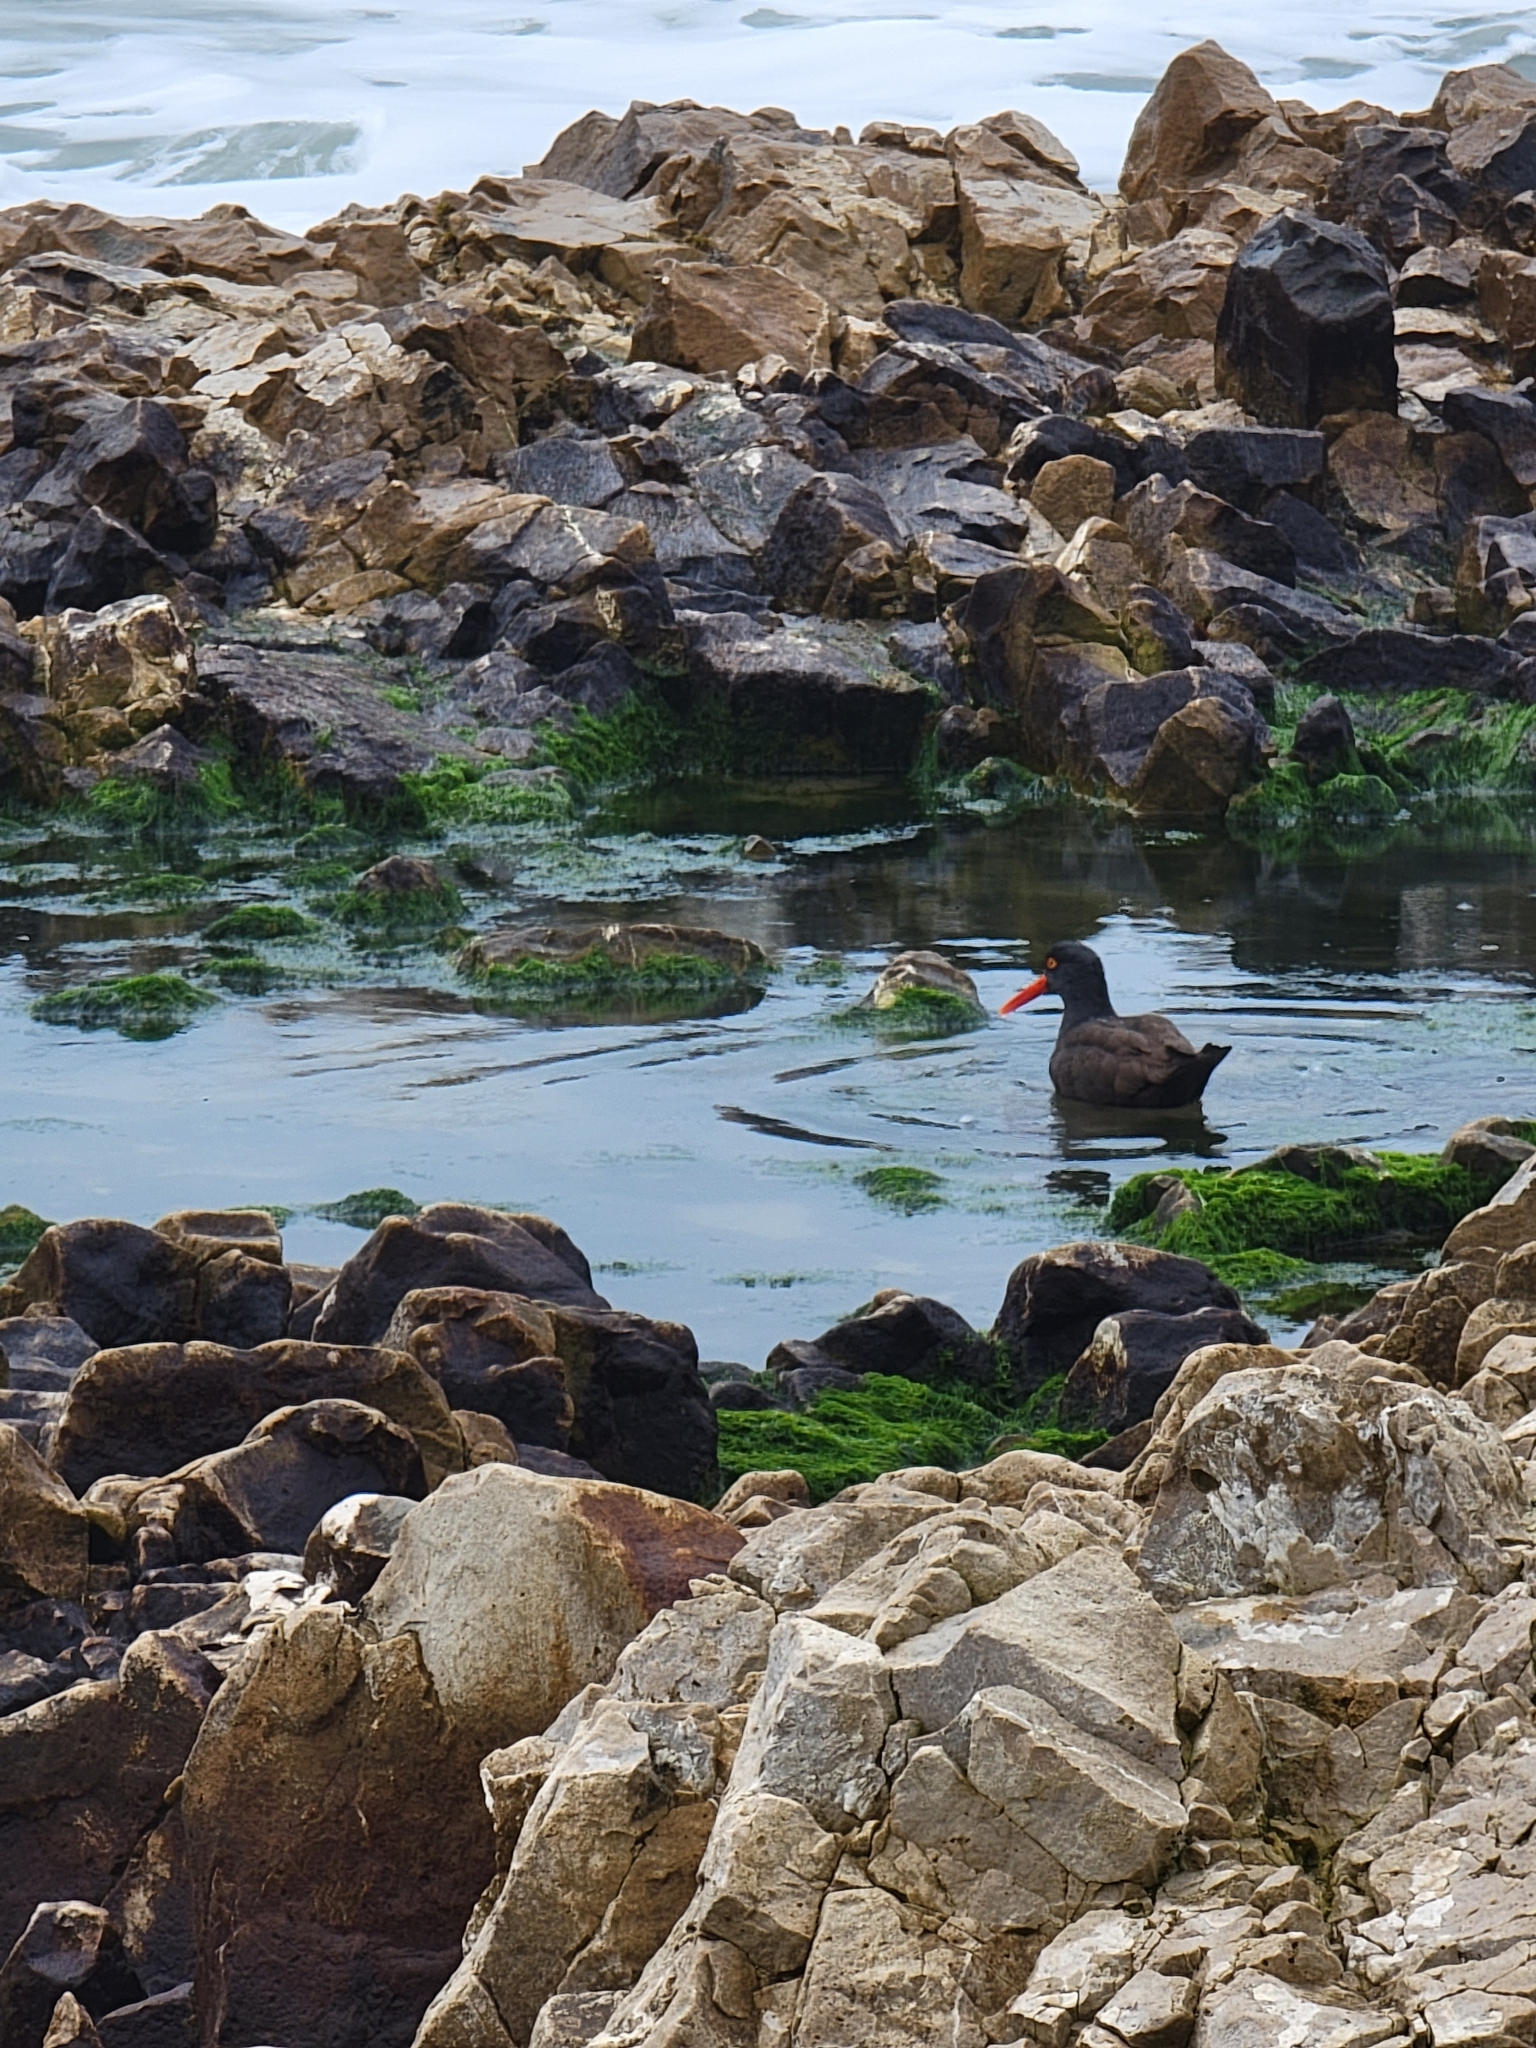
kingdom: Animalia
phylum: Chordata
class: Aves
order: Charadriiformes
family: Haematopodidae
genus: Haematopus
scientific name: Haematopus bachmani
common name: Black oystercatcher
